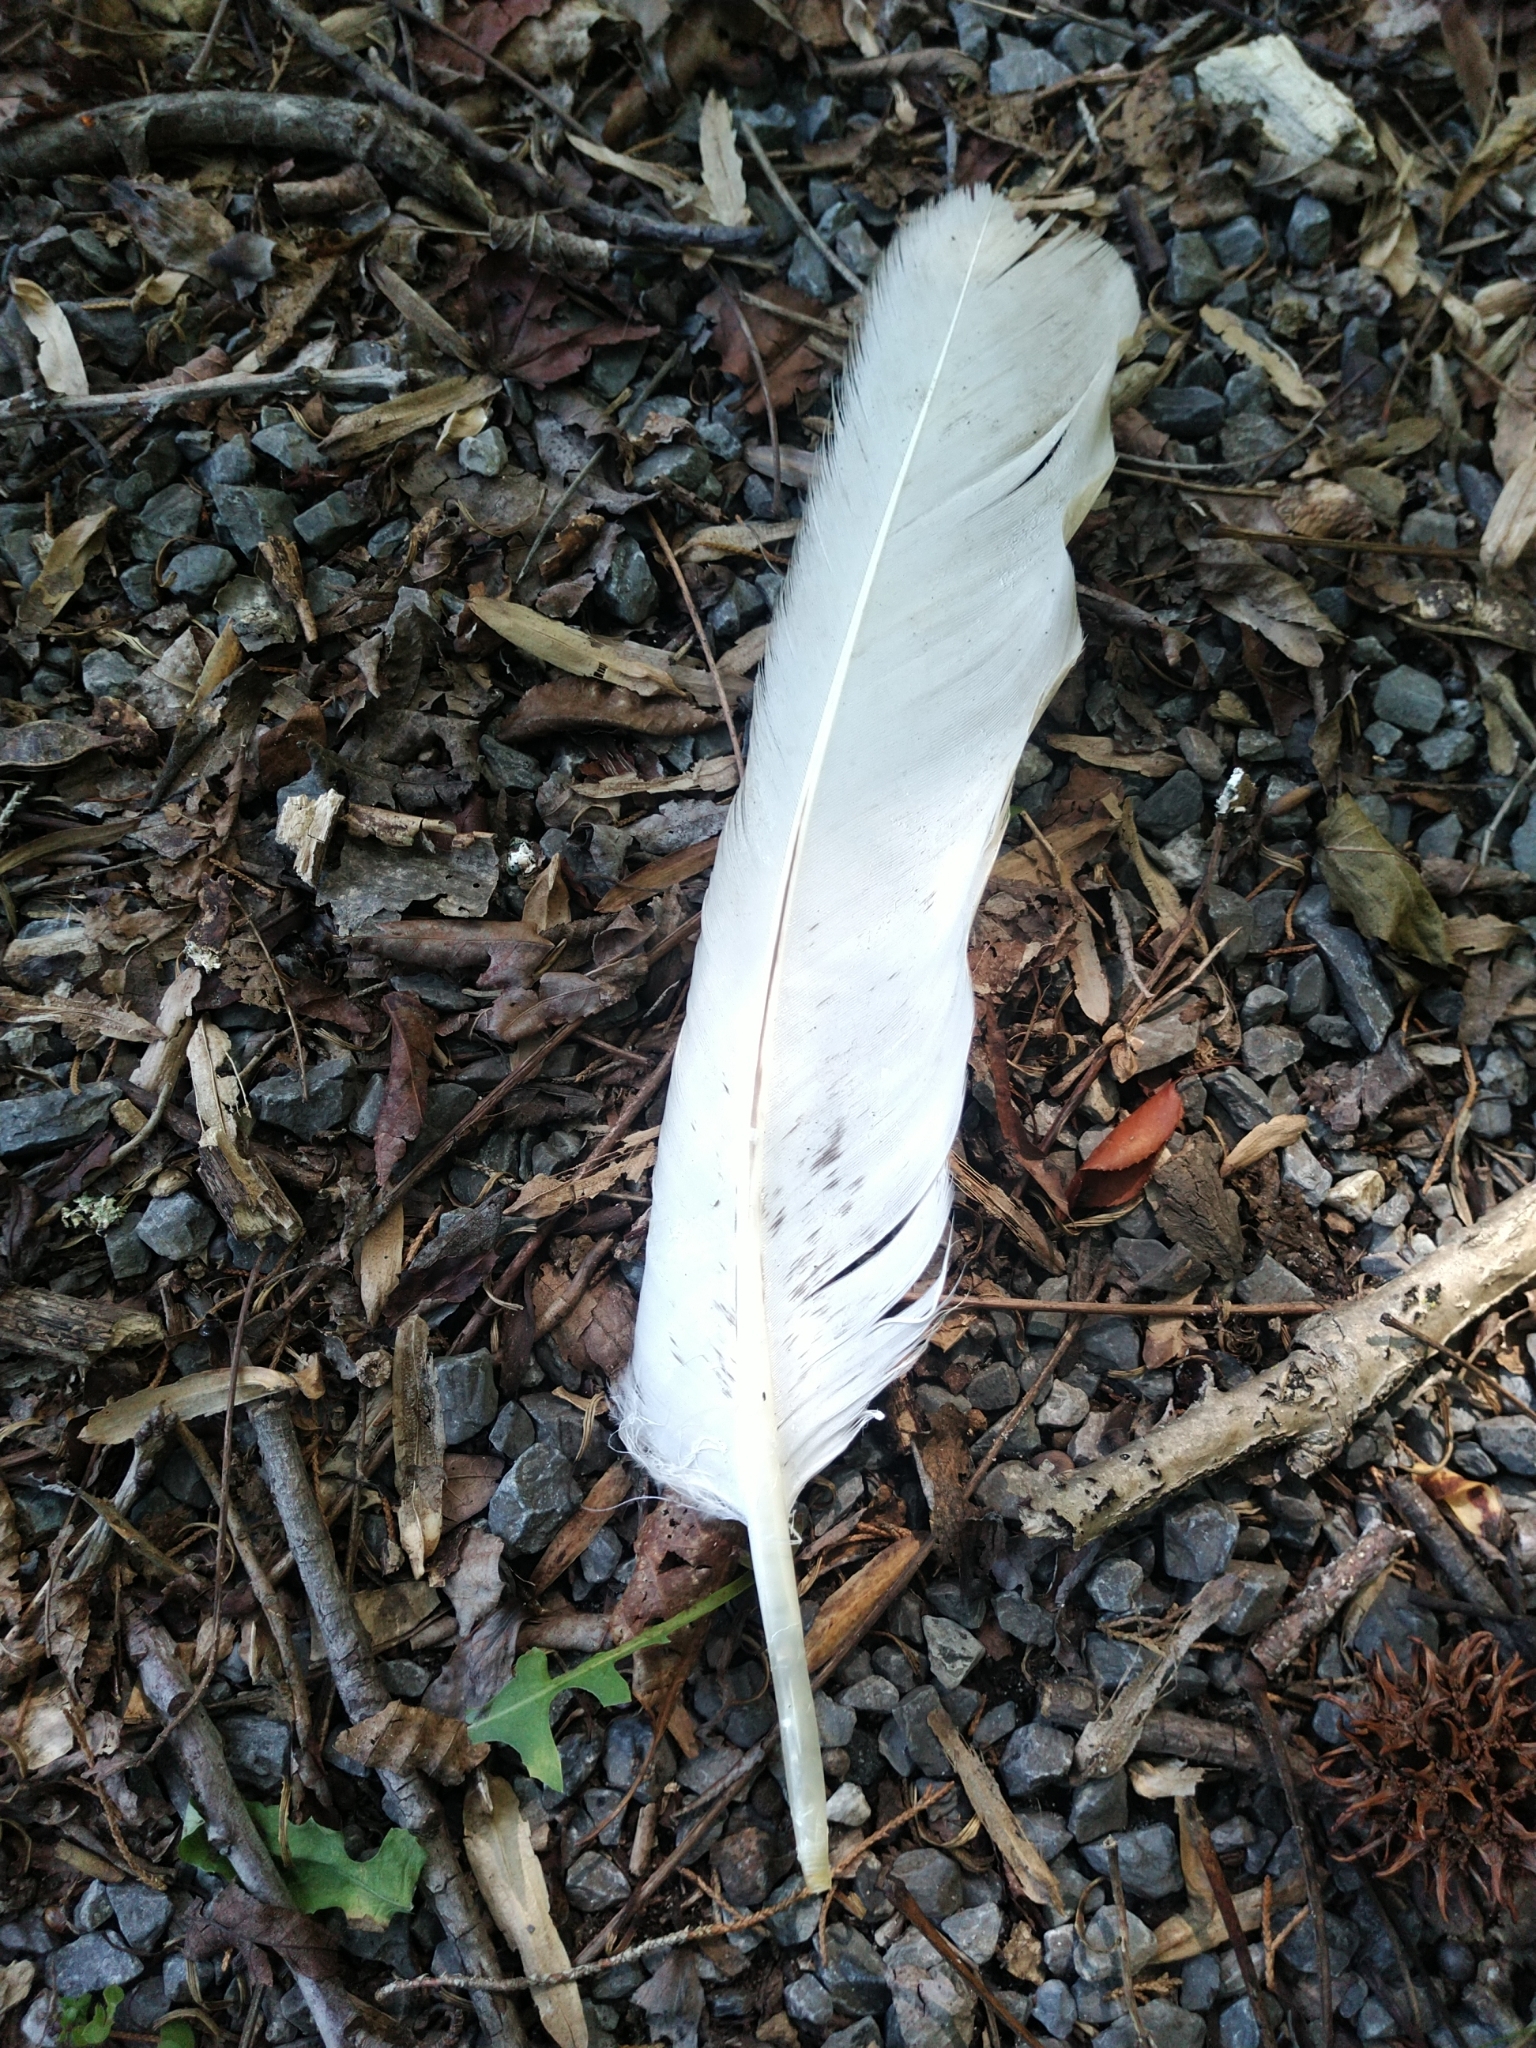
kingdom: Animalia
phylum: Chordata
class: Aves
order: Accipitriformes
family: Accipitridae
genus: Haliaeetus
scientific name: Haliaeetus leucocephalus
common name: Bald eagle
